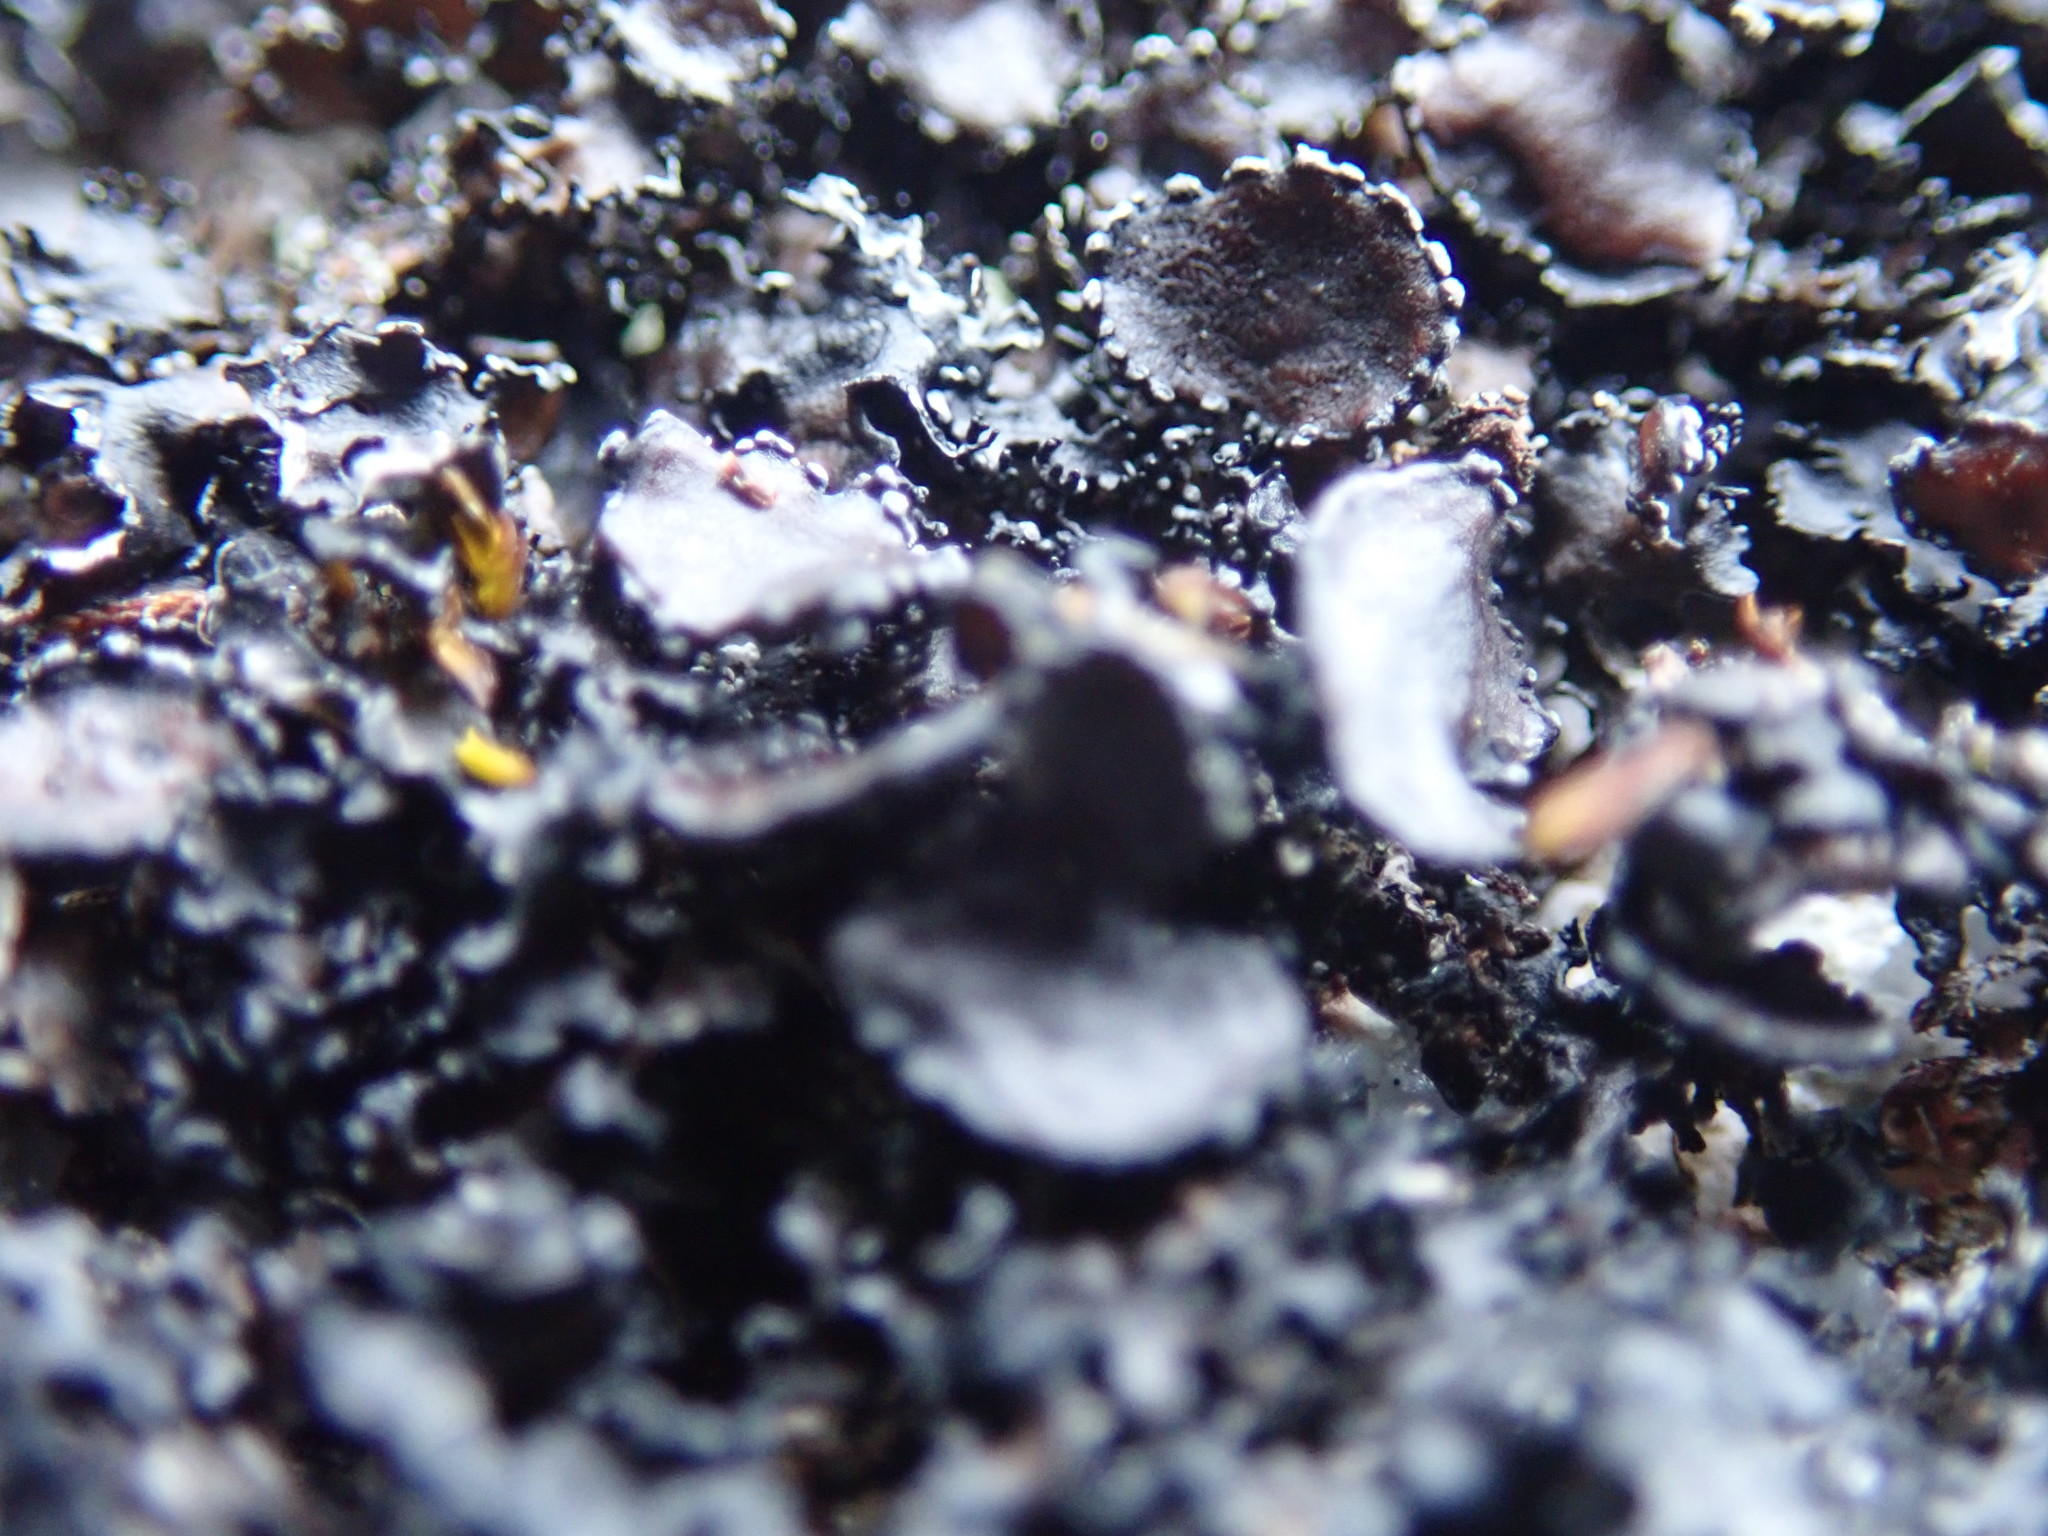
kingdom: Fungi
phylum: Ascomycota
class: Lecanoromycetes
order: Lecanorales
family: Parmeliaceae
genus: Melanelia
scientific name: Melanelia hepatizon
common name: Rimmed camouflage lichen
